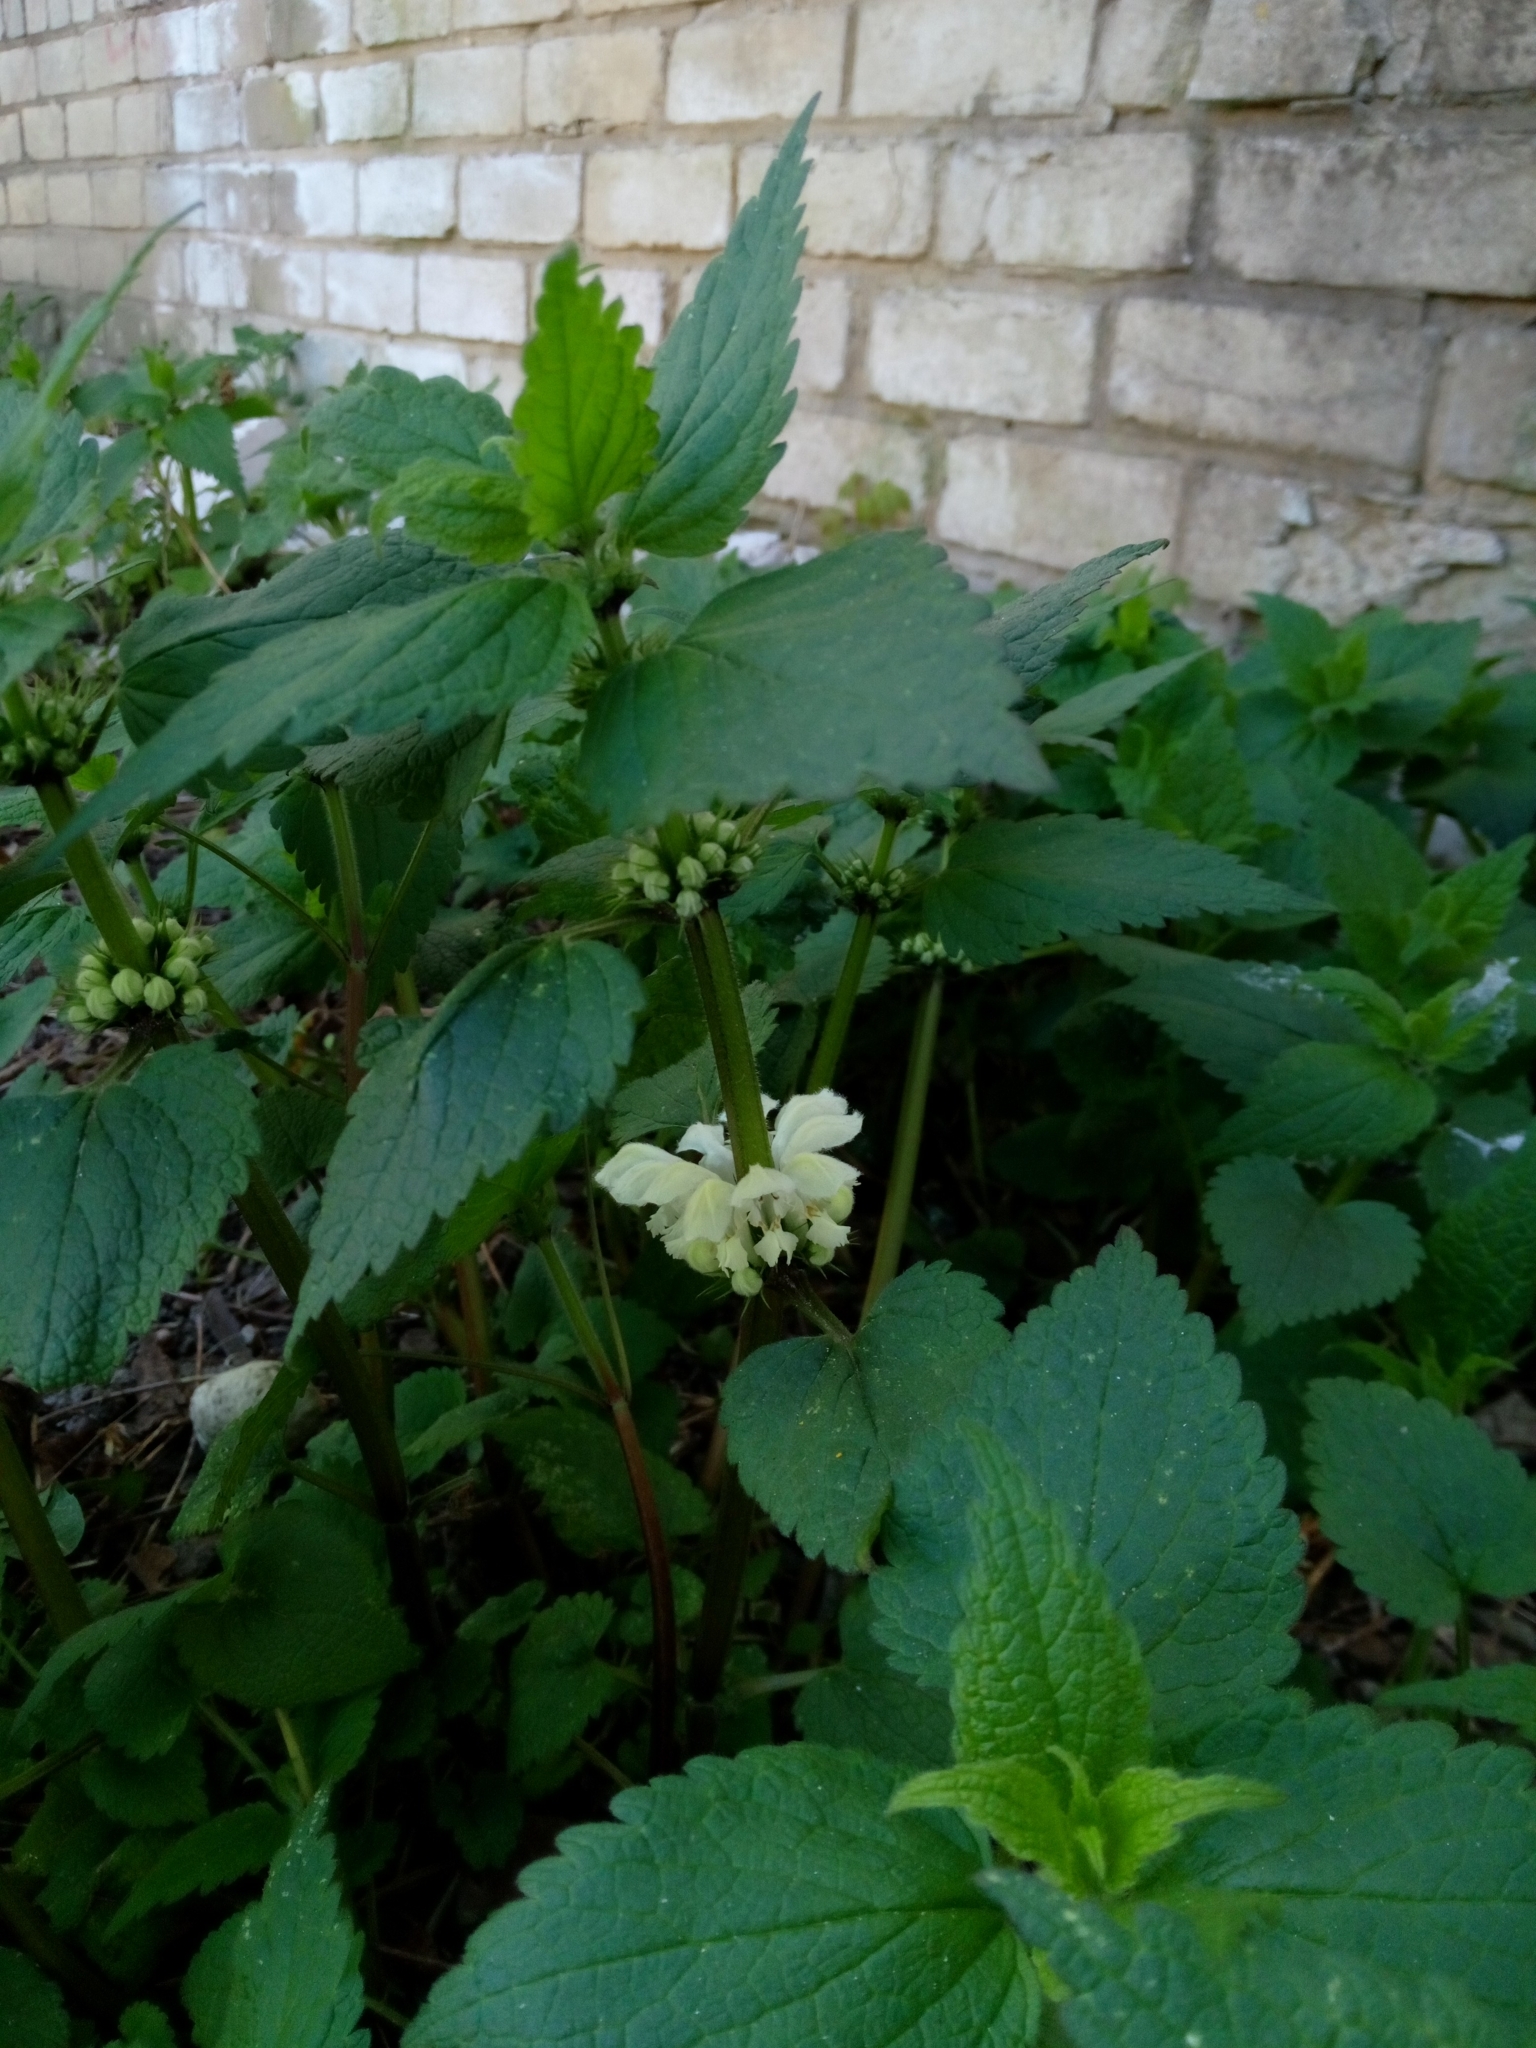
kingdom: Plantae
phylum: Tracheophyta
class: Magnoliopsida
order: Lamiales
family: Lamiaceae
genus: Lamium
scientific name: Lamium album
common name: White dead-nettle
